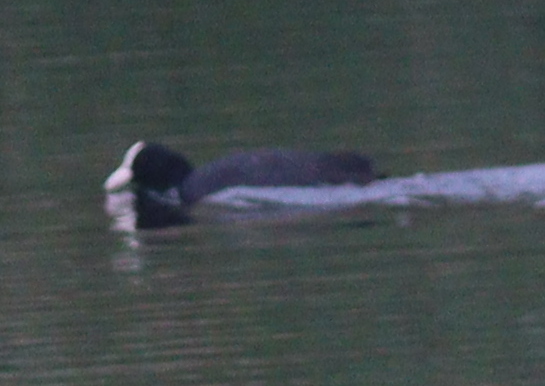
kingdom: Animalia
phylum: Chordata
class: Aves
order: Gruiformes
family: Rallidae
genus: Fulica
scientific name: Fulica atra
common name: Eurasian coot
